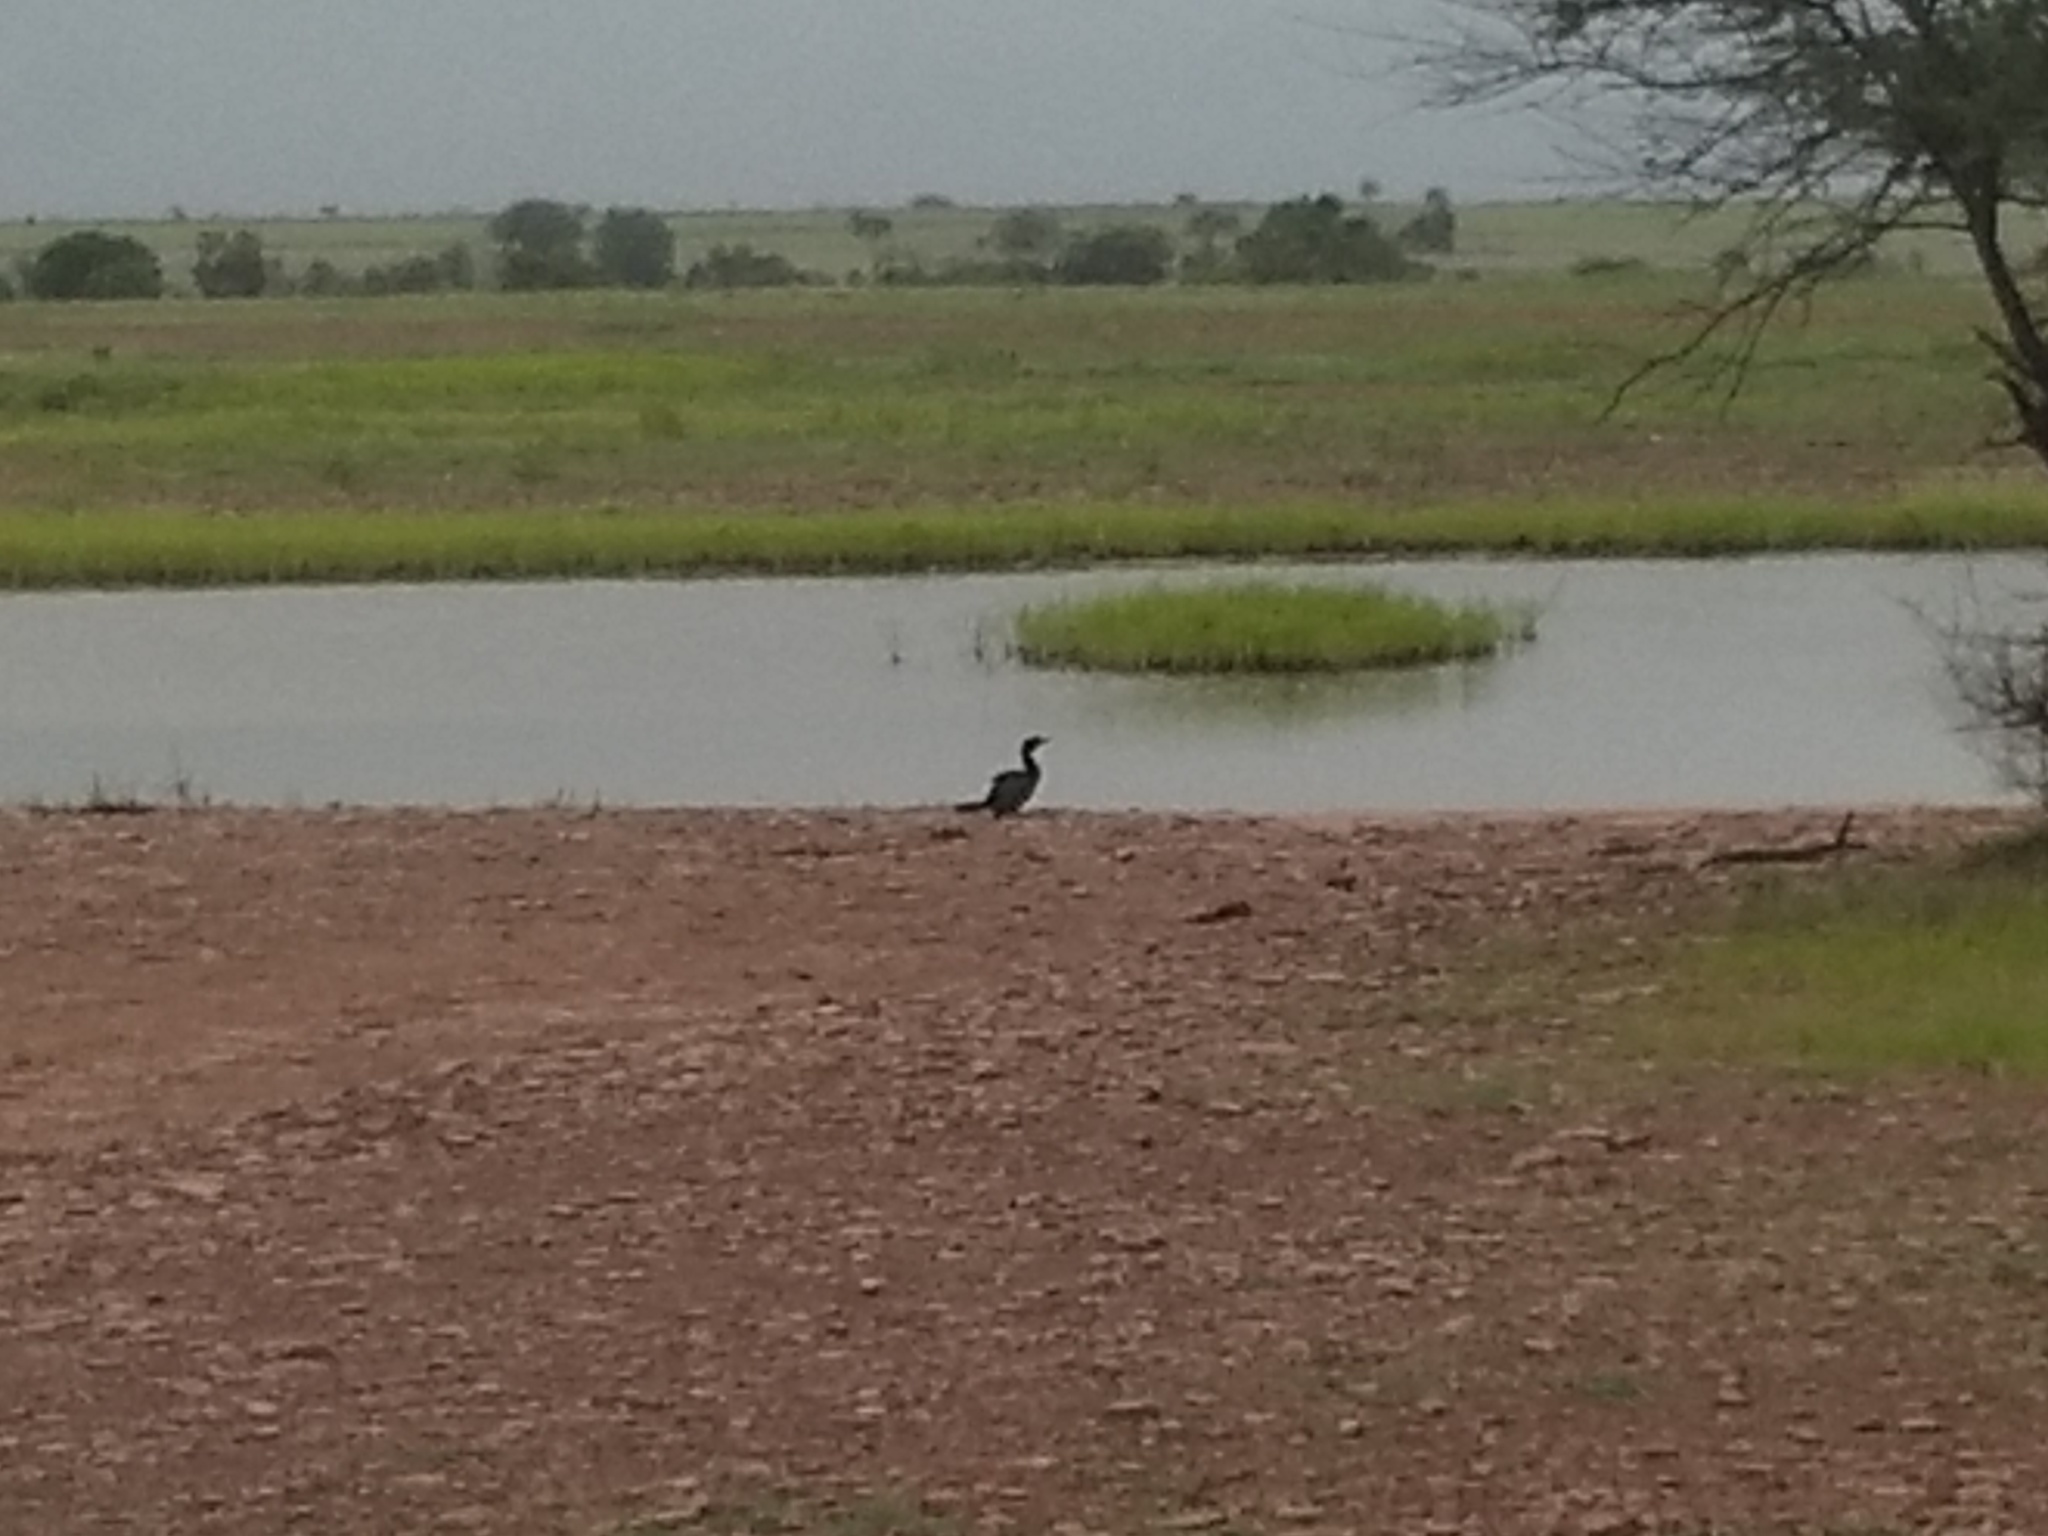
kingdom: Animalia
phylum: Chordata
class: Aves
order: Suliformes
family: Phalacrocoracidae
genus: Microcarbo
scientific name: Microcarbo niger
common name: Little cormorant
